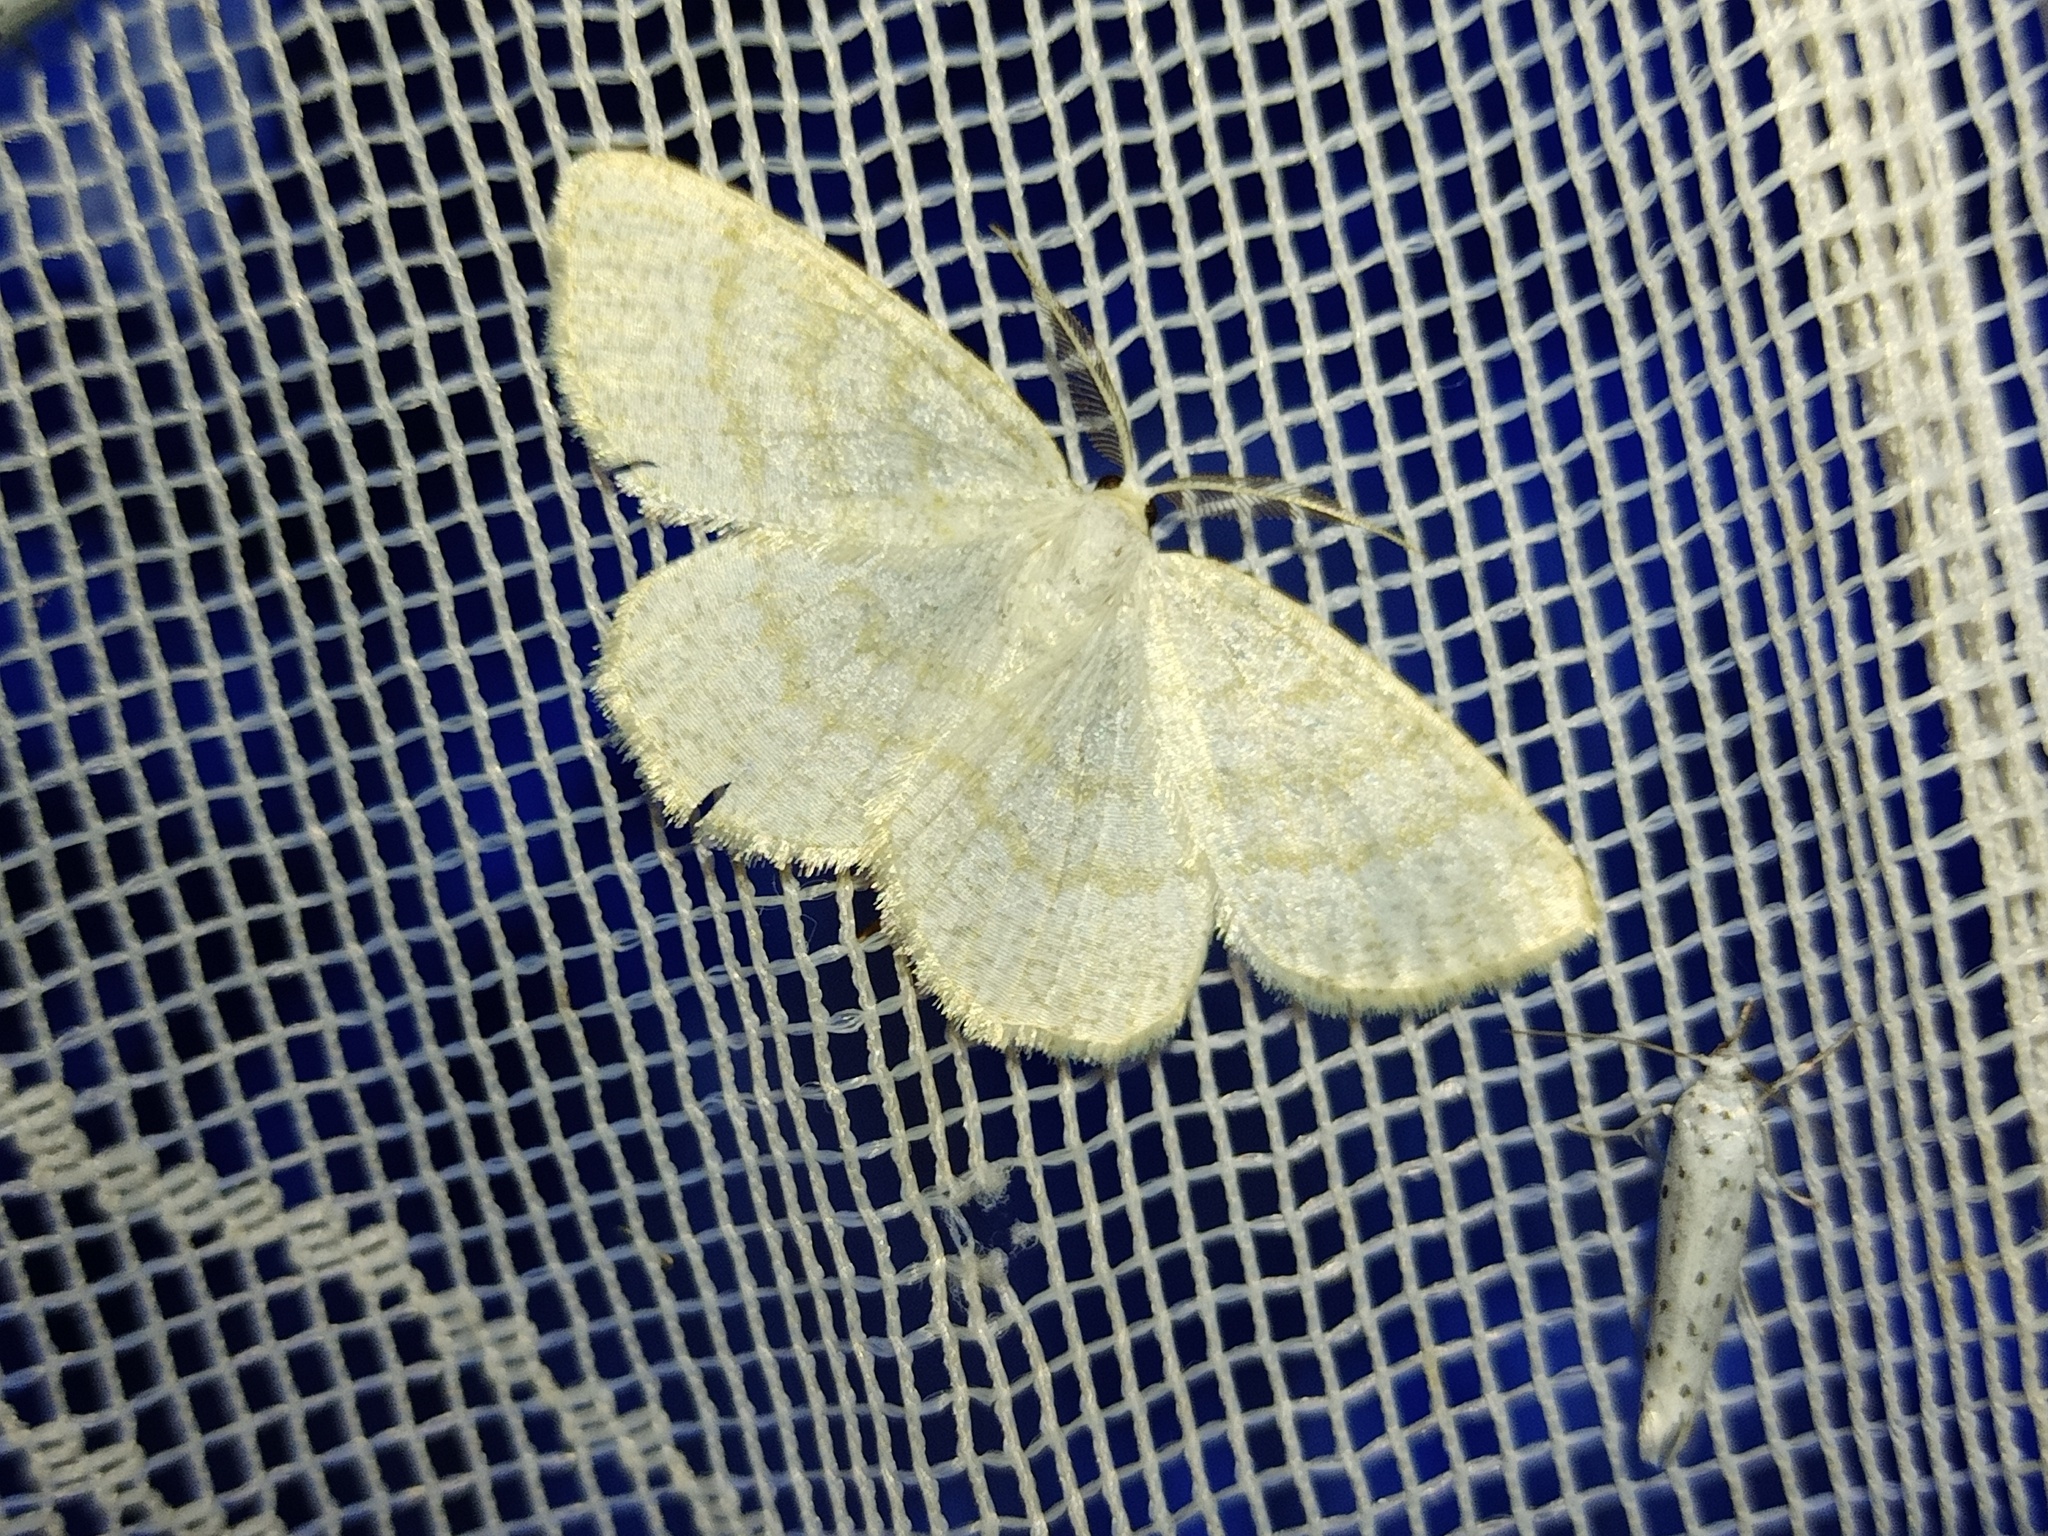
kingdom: Animalia
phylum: Arthropoda
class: Insecta
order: Lepidoptera
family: Geometridae
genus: Cabera
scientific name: Cabera exanthemata
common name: Common wave
